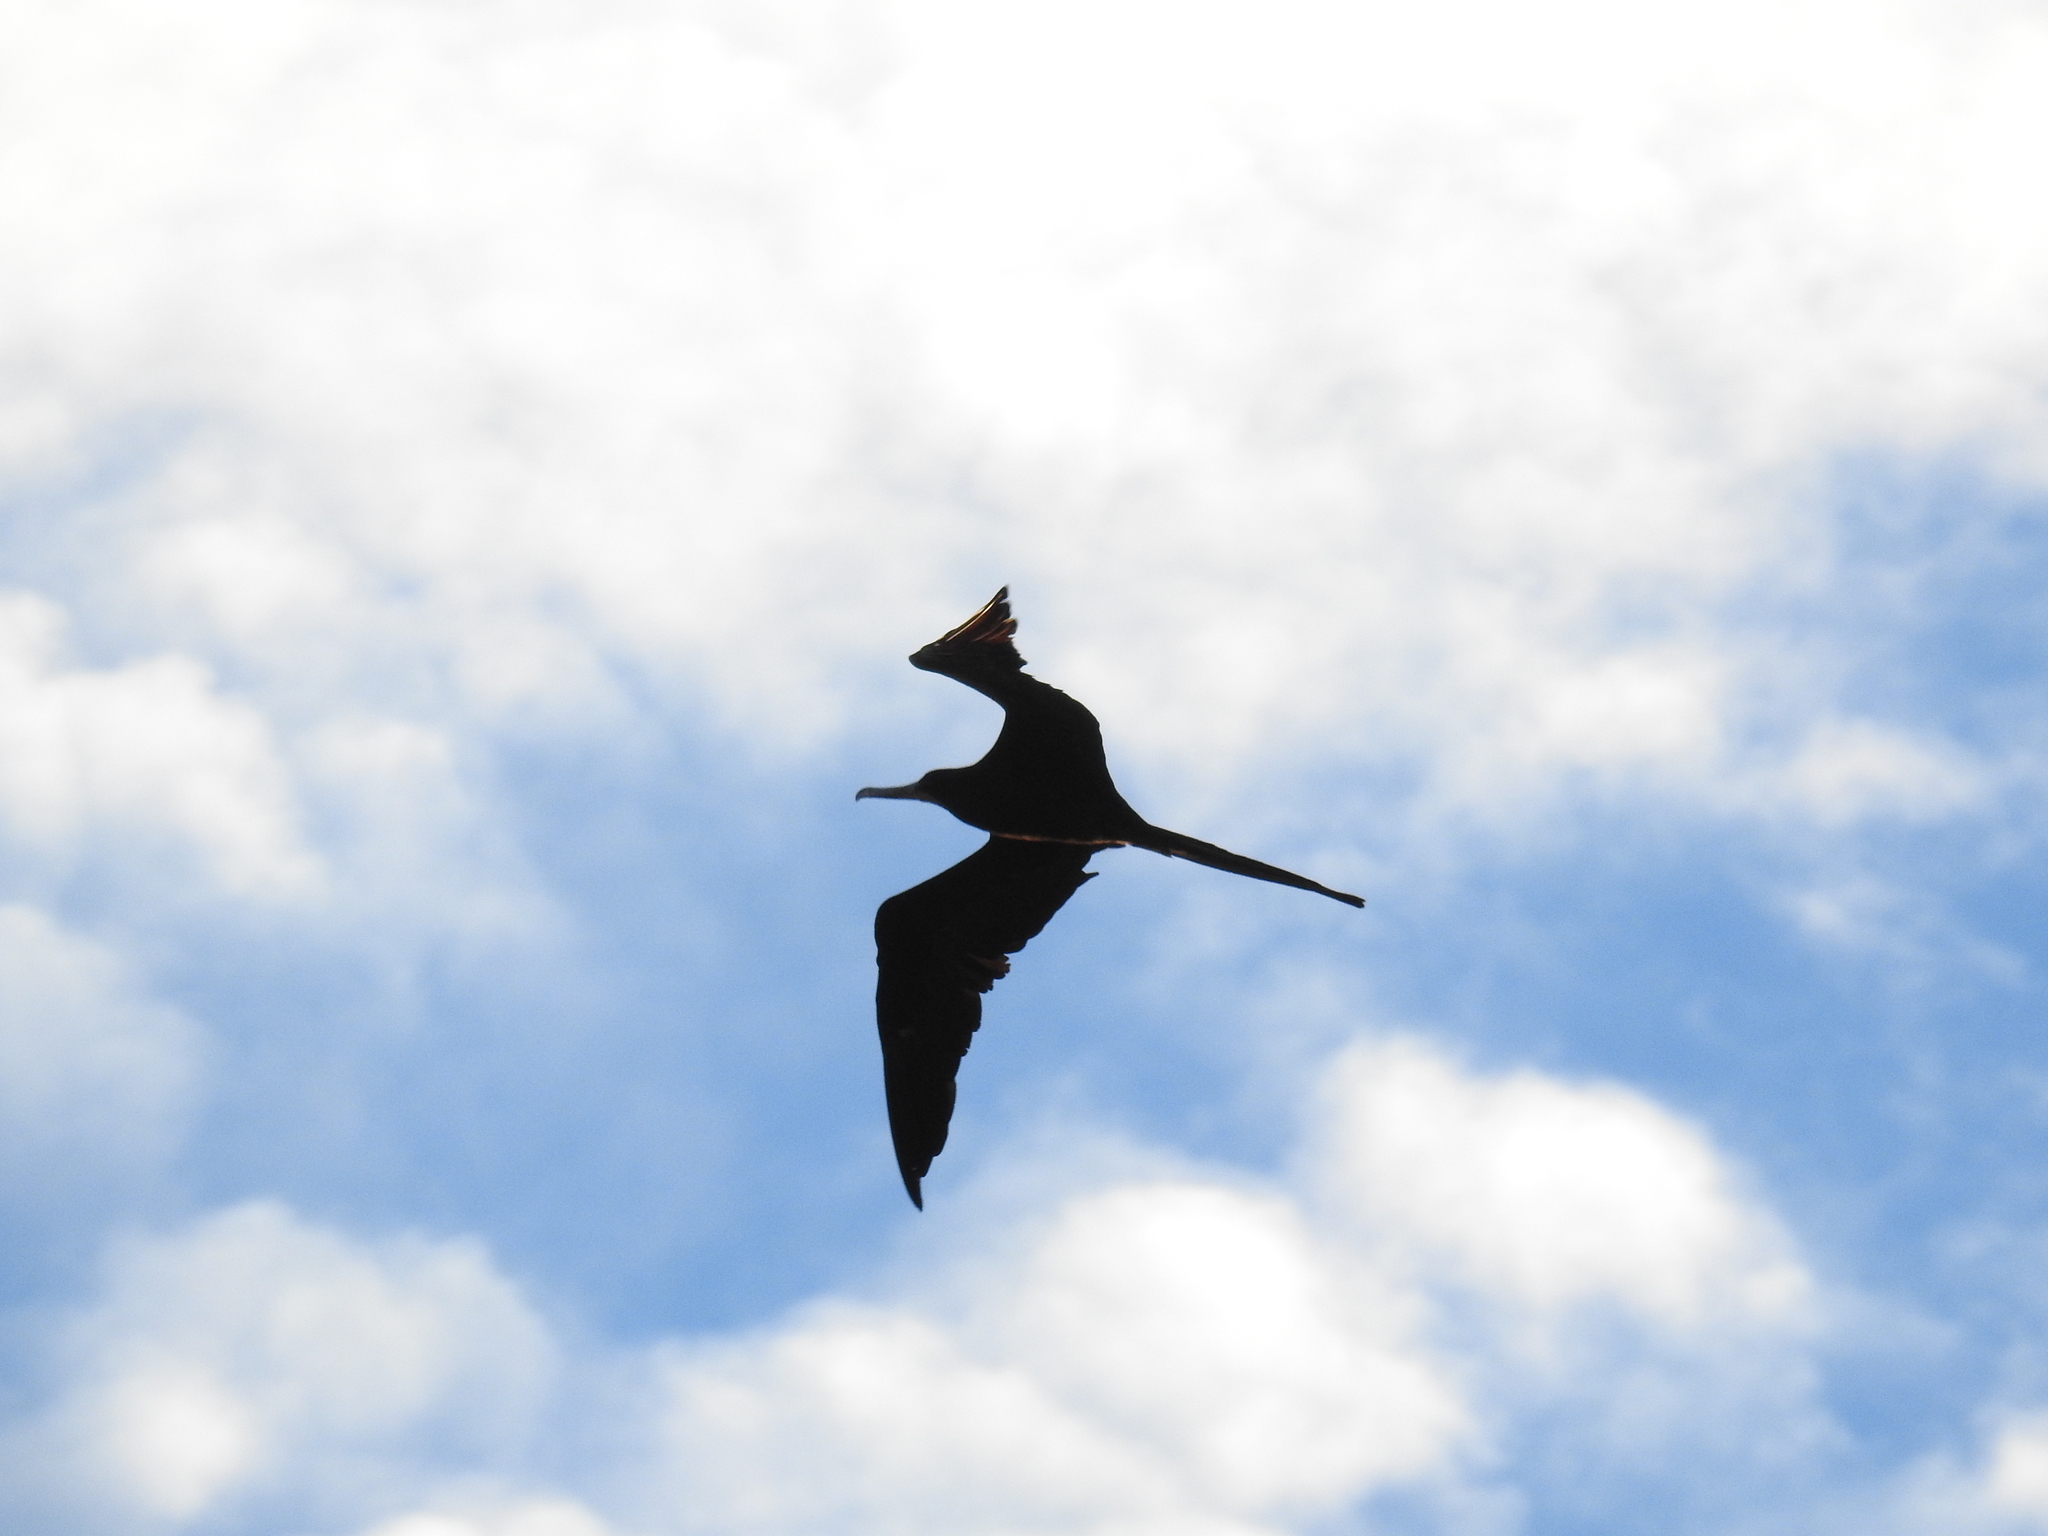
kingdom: Animalia
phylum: Chordata
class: Aves
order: Suliformes
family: Fregatidae
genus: Fregata
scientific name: Fregata magnificens
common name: Magnificent frigatebird
